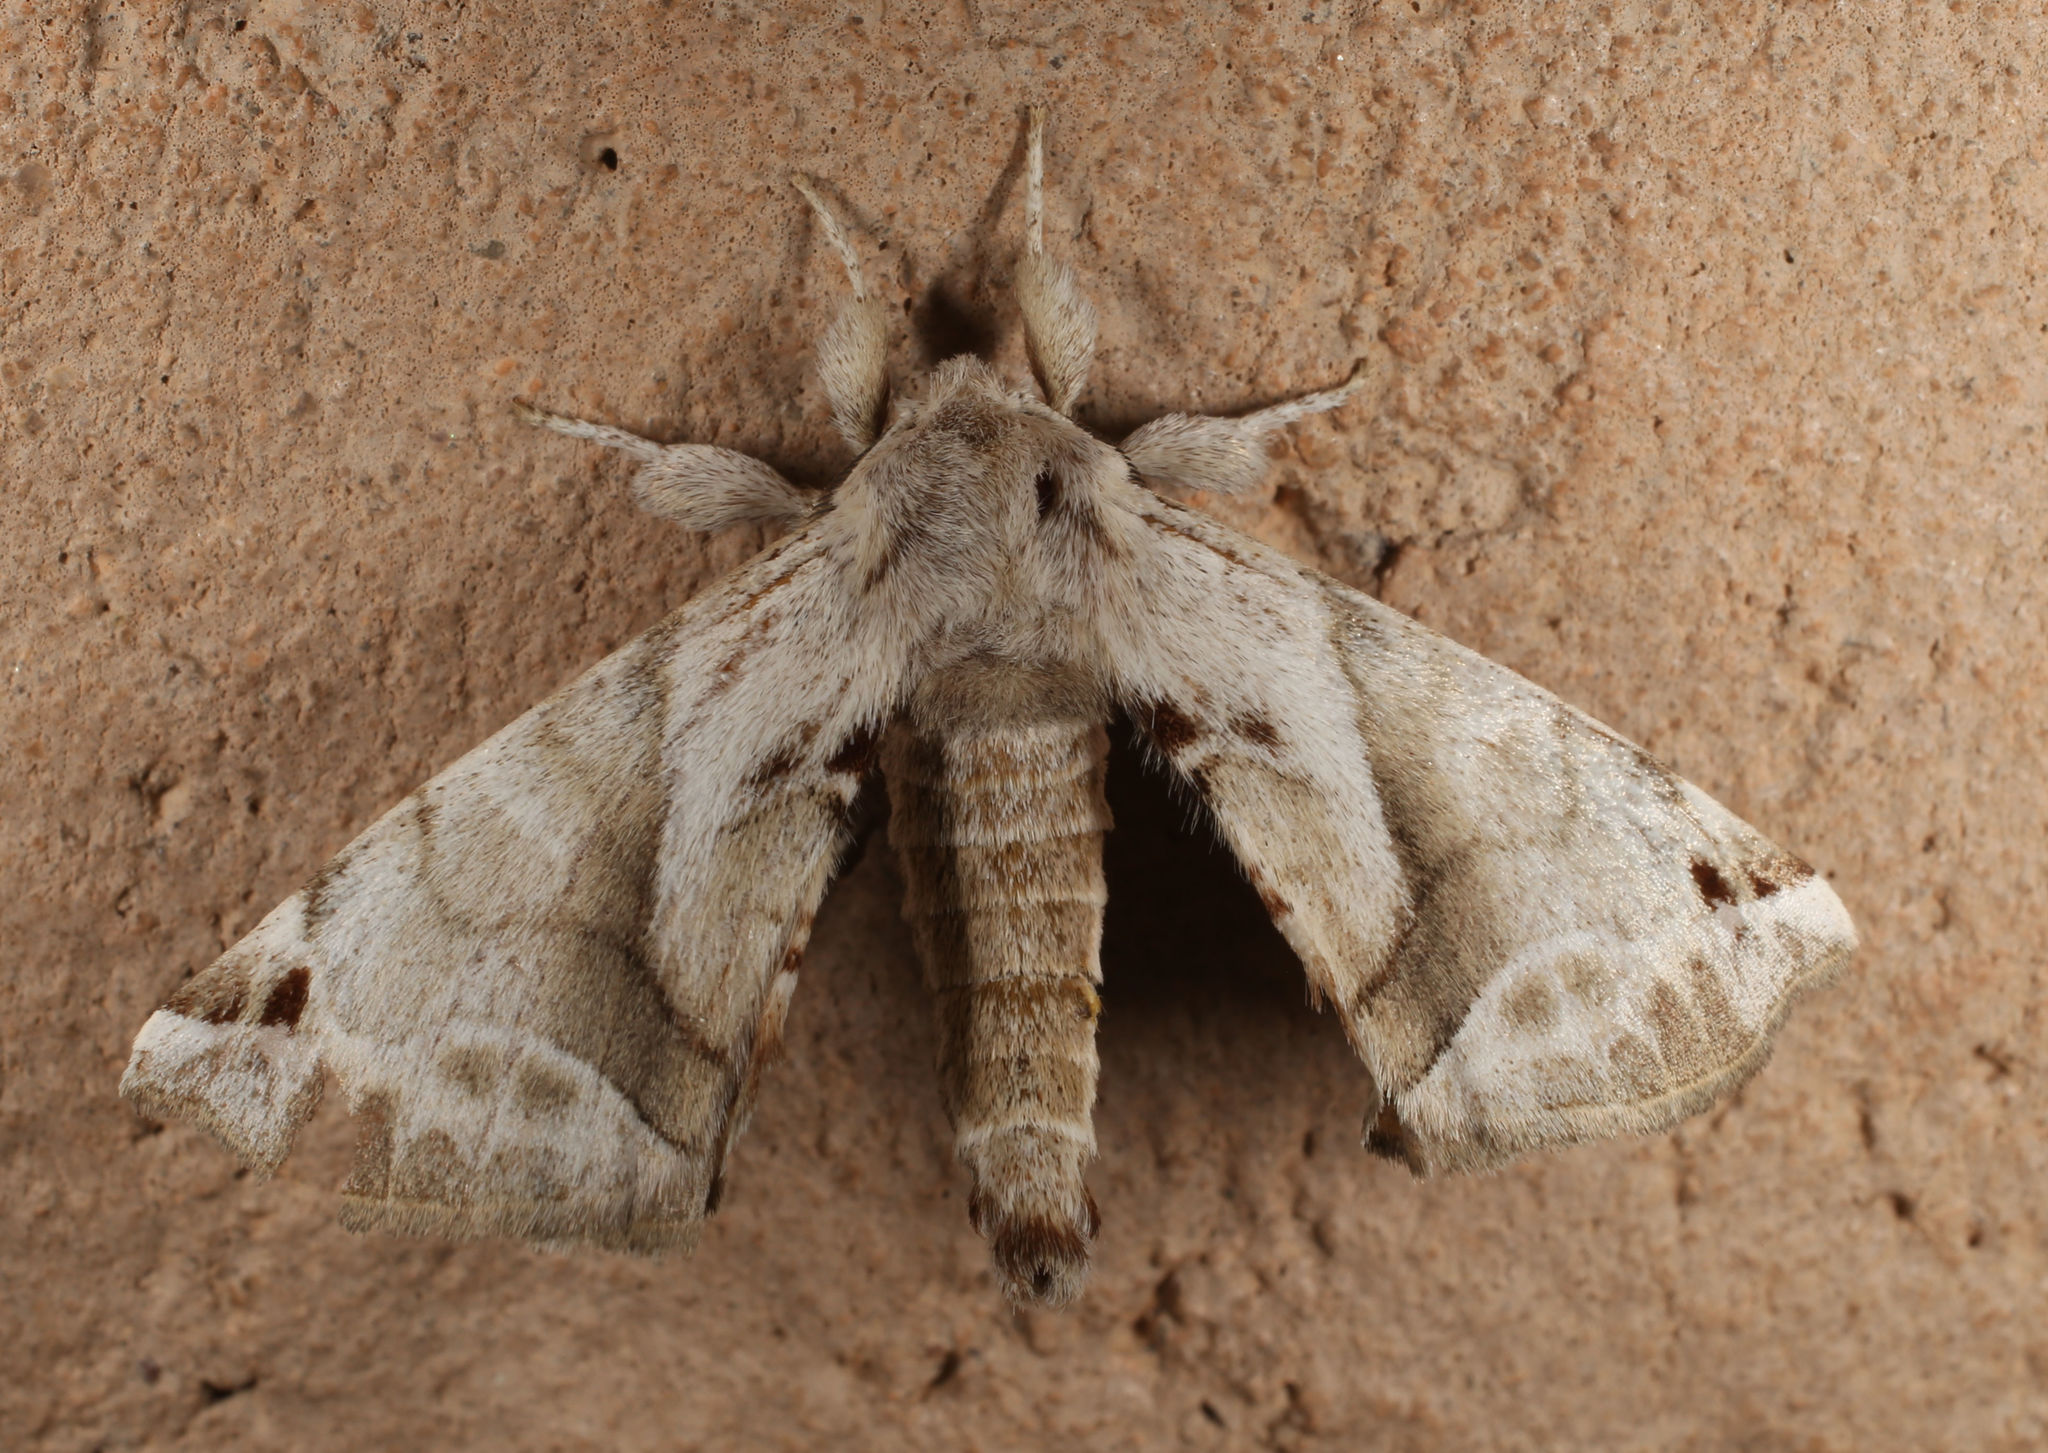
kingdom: Animalia
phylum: Arthropoda
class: Insecta
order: Lepidoptera
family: Apatelodidae
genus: Hygrochroa
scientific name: Hygrochroa Apatelodes pudefacta
